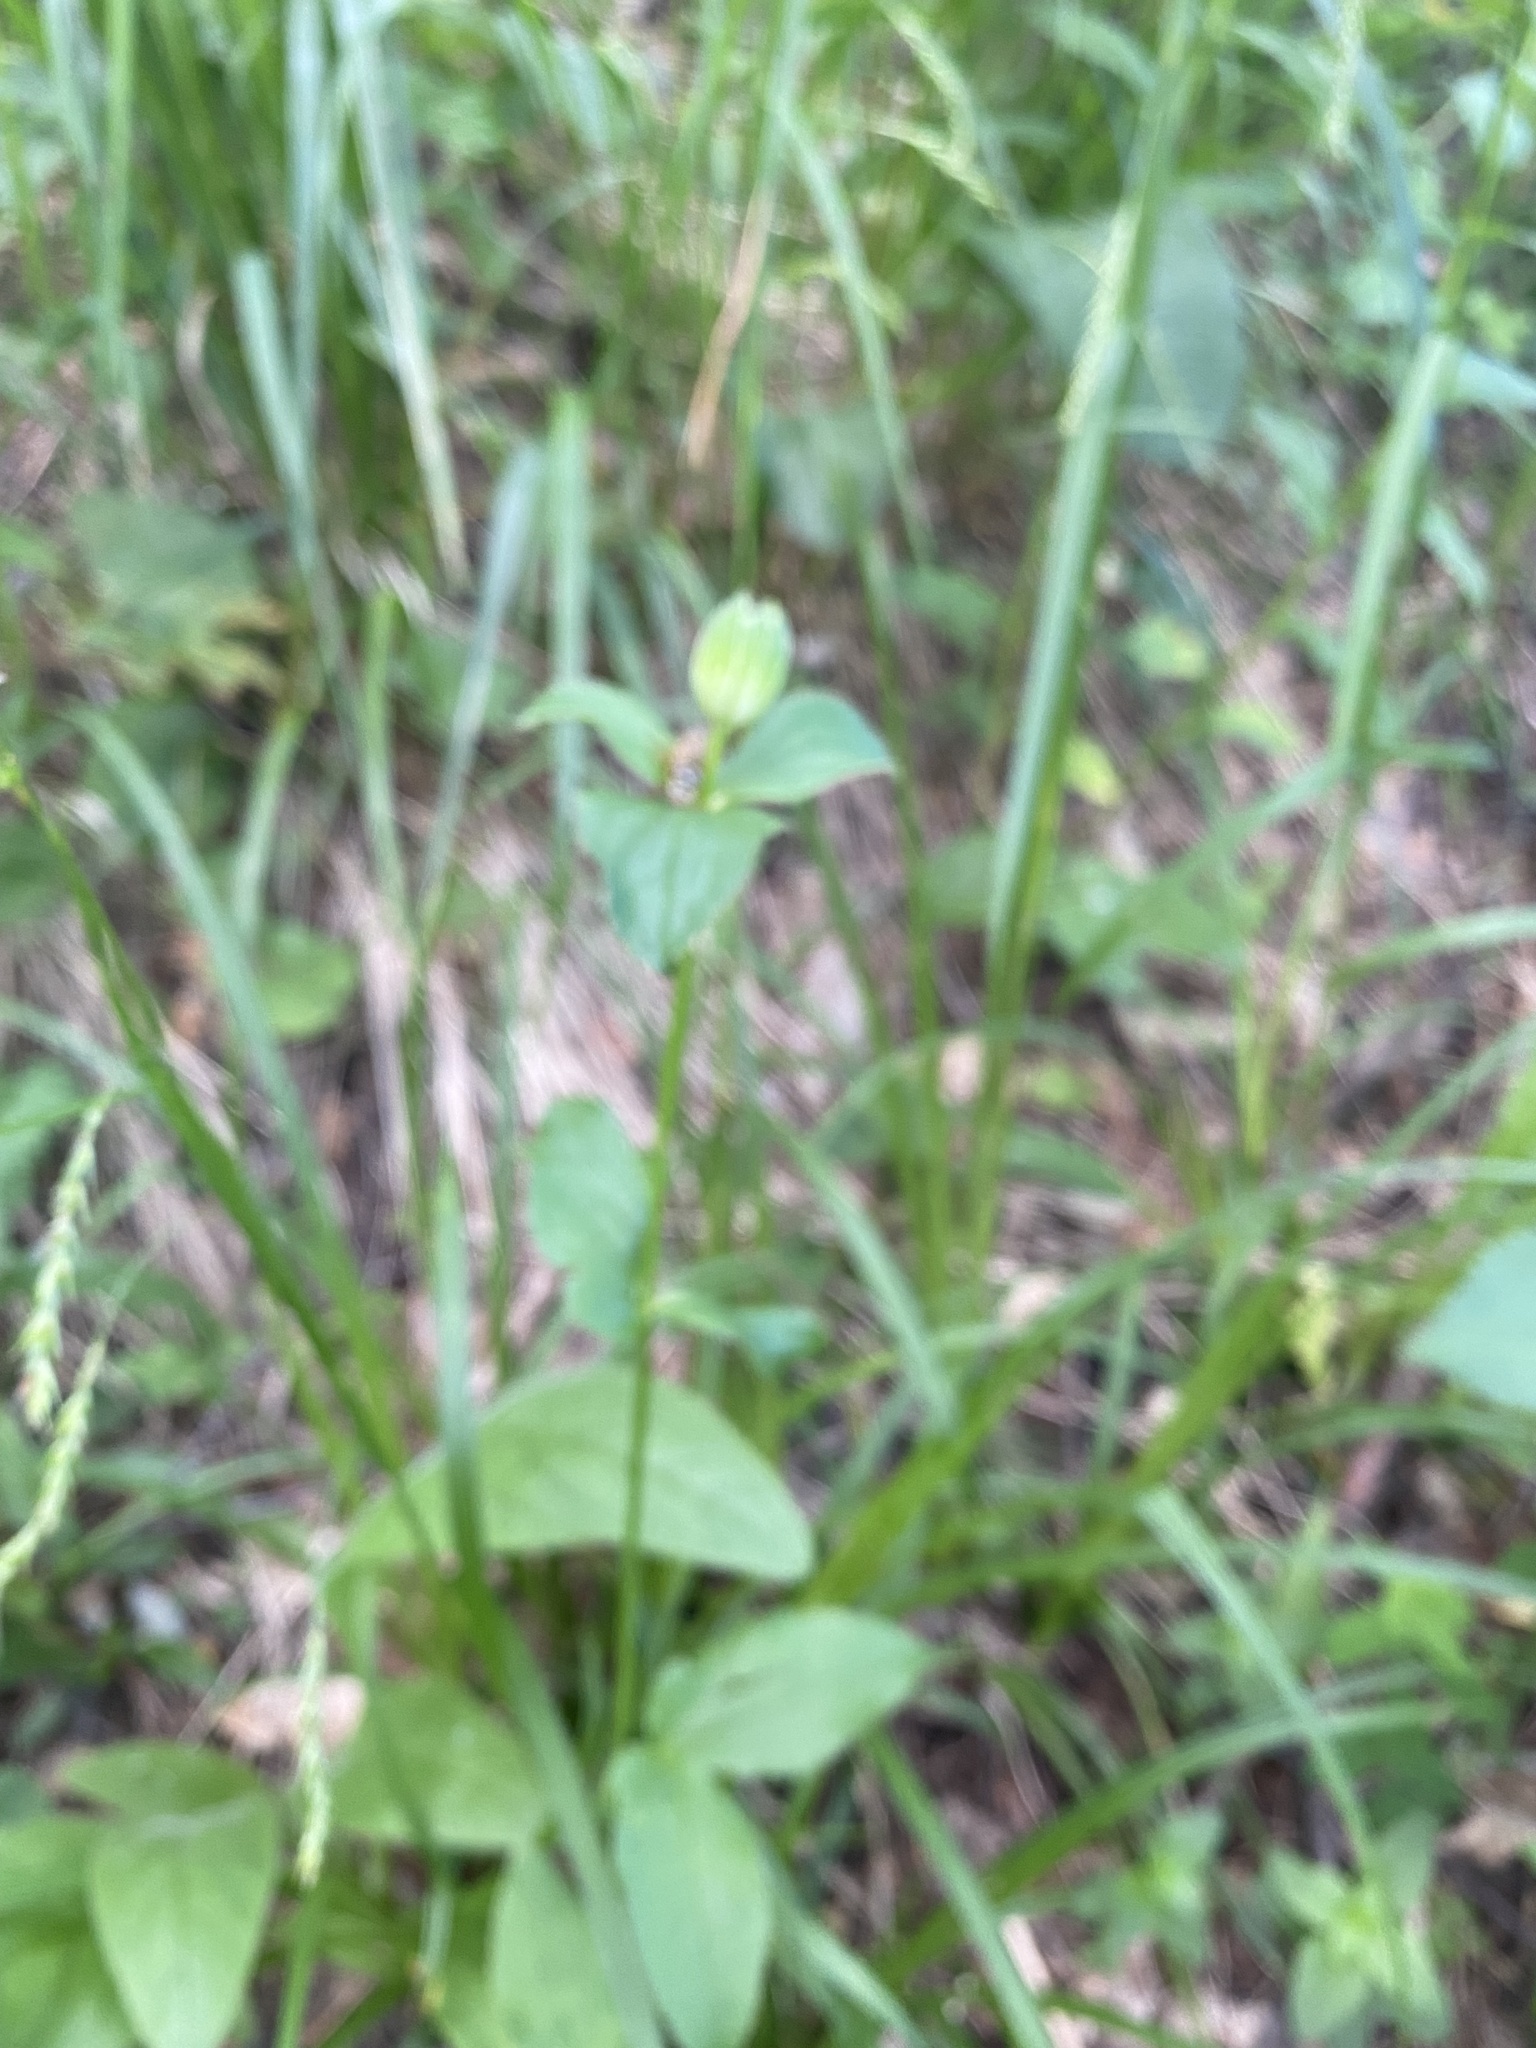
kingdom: Plantae
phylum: Tracheophyta
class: Magnoliopsida
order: Apiales
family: Apiaceae
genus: Astrantia
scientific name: Astrantia maxima
